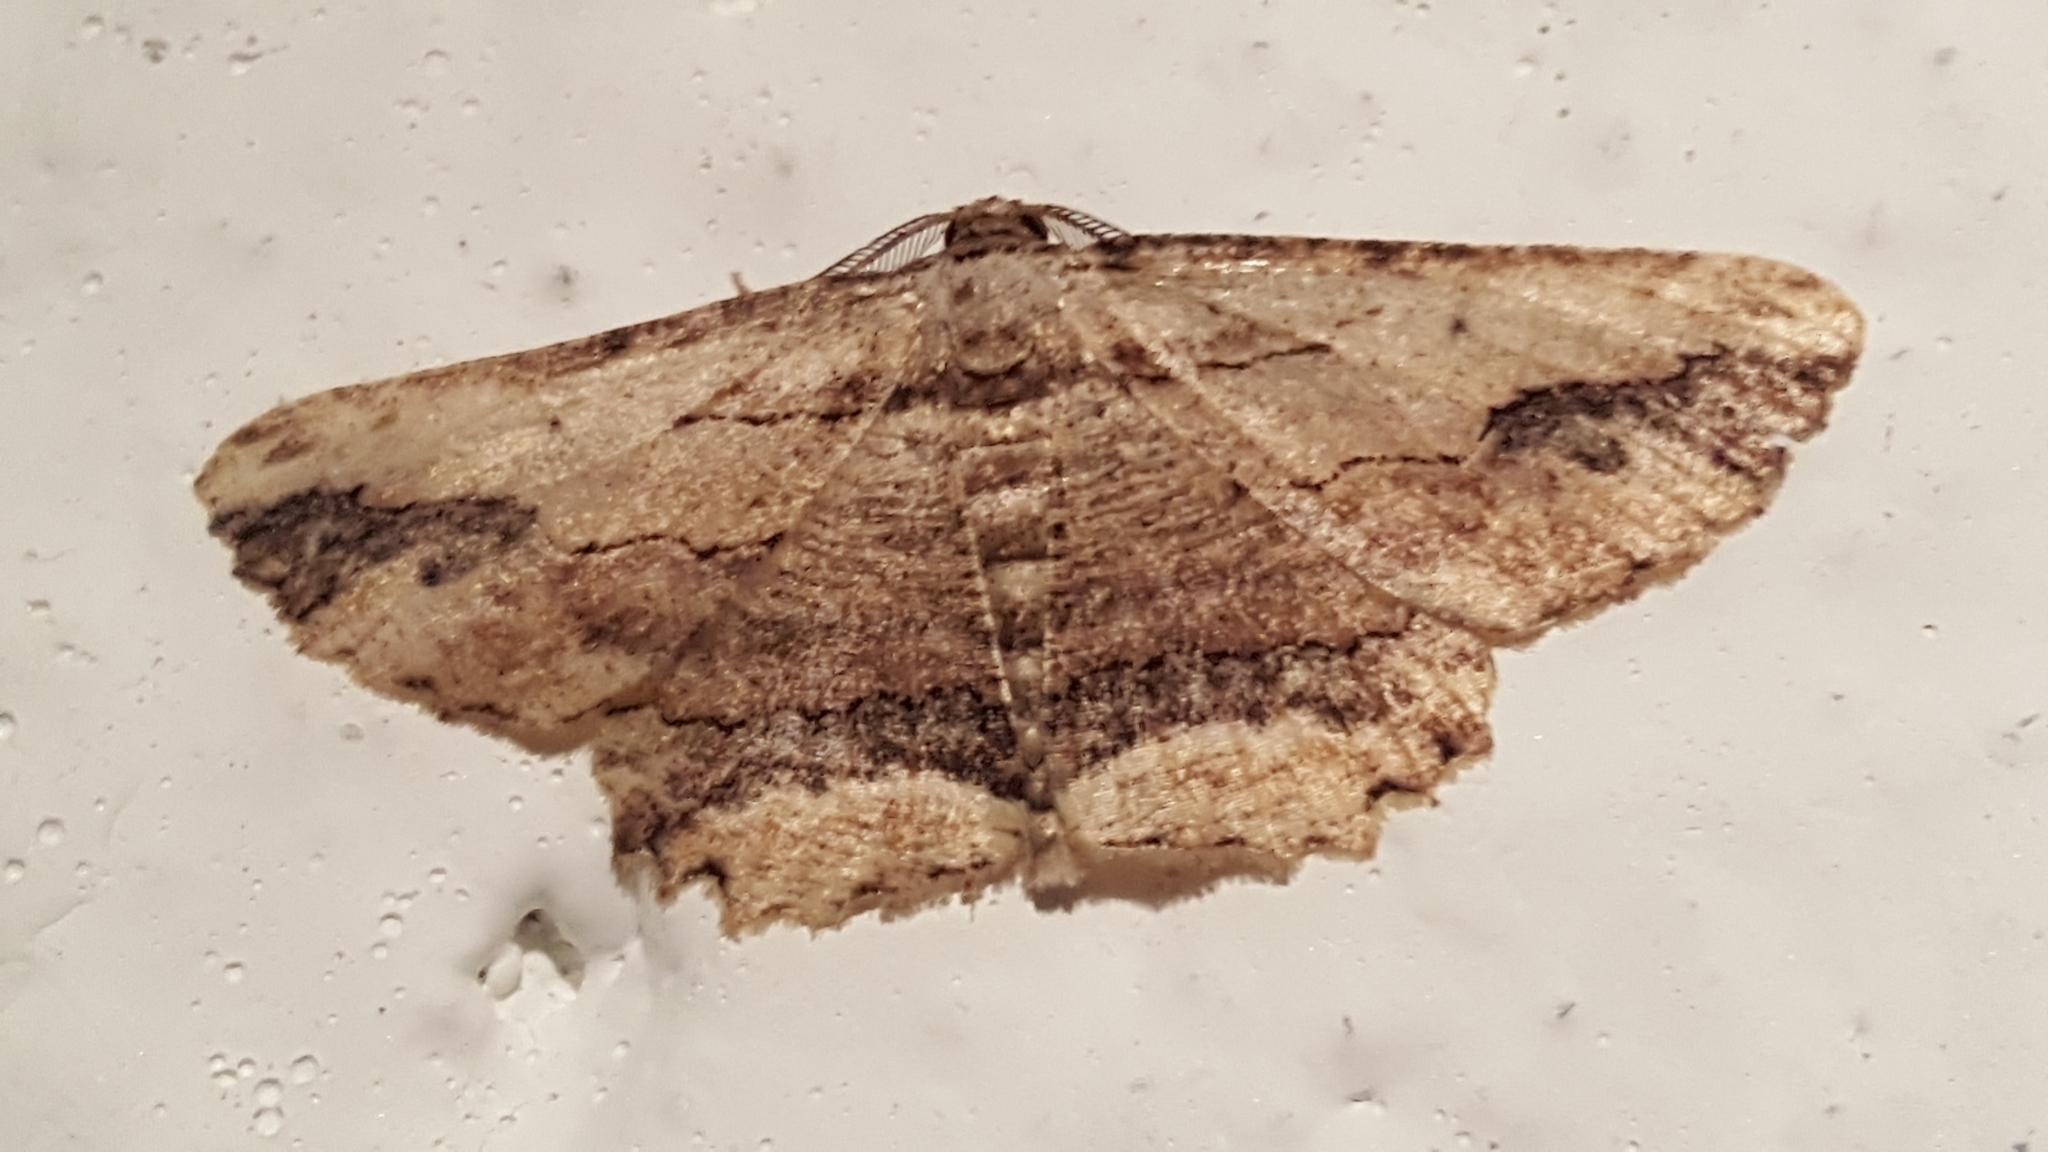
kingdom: Animalia
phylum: Arthropoda
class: Insecta
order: Lepidoptera
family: Geometridae
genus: Menophra
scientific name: Menophra abruptaria
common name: Waved umber
